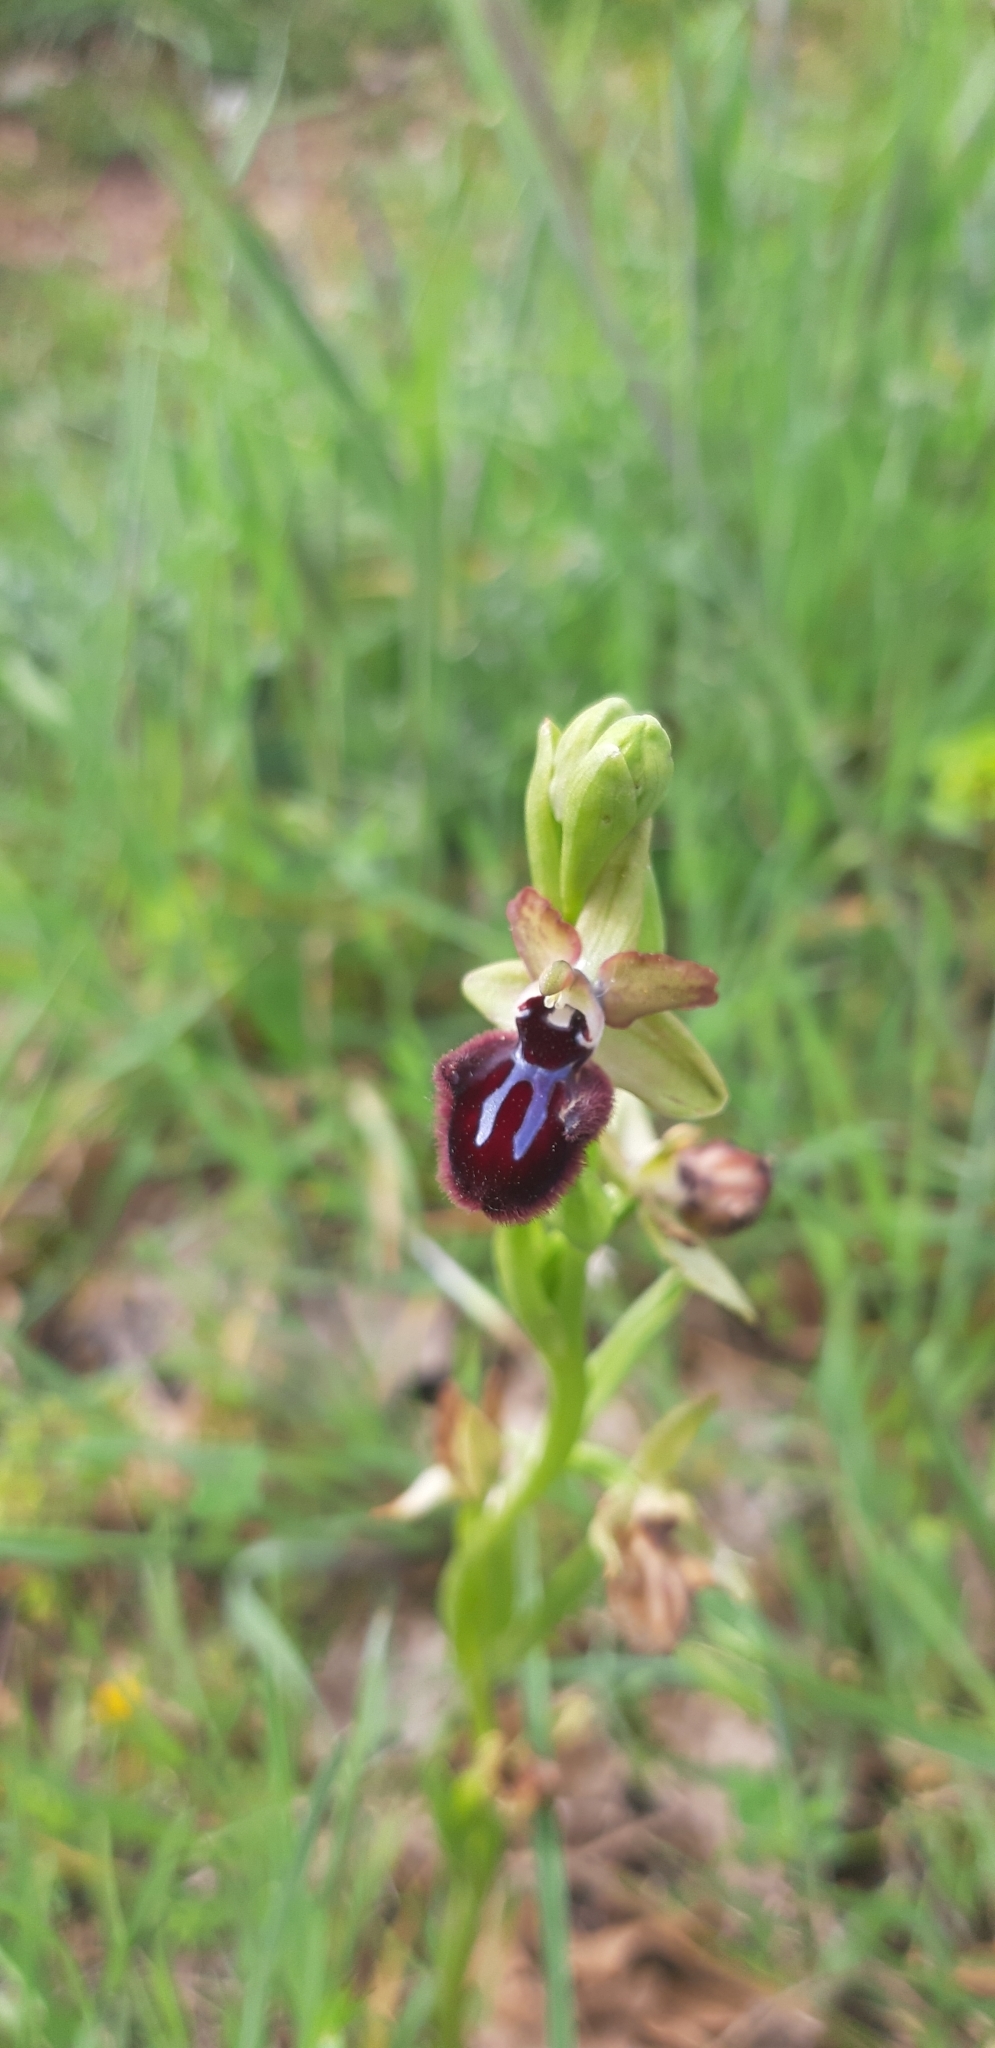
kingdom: Plantae
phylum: Tracheophyta
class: Liliopsida
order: Asparagales
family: Orchidaceae
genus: Ophrys
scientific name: Ophrys sphegodes
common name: Early spider-orchid
